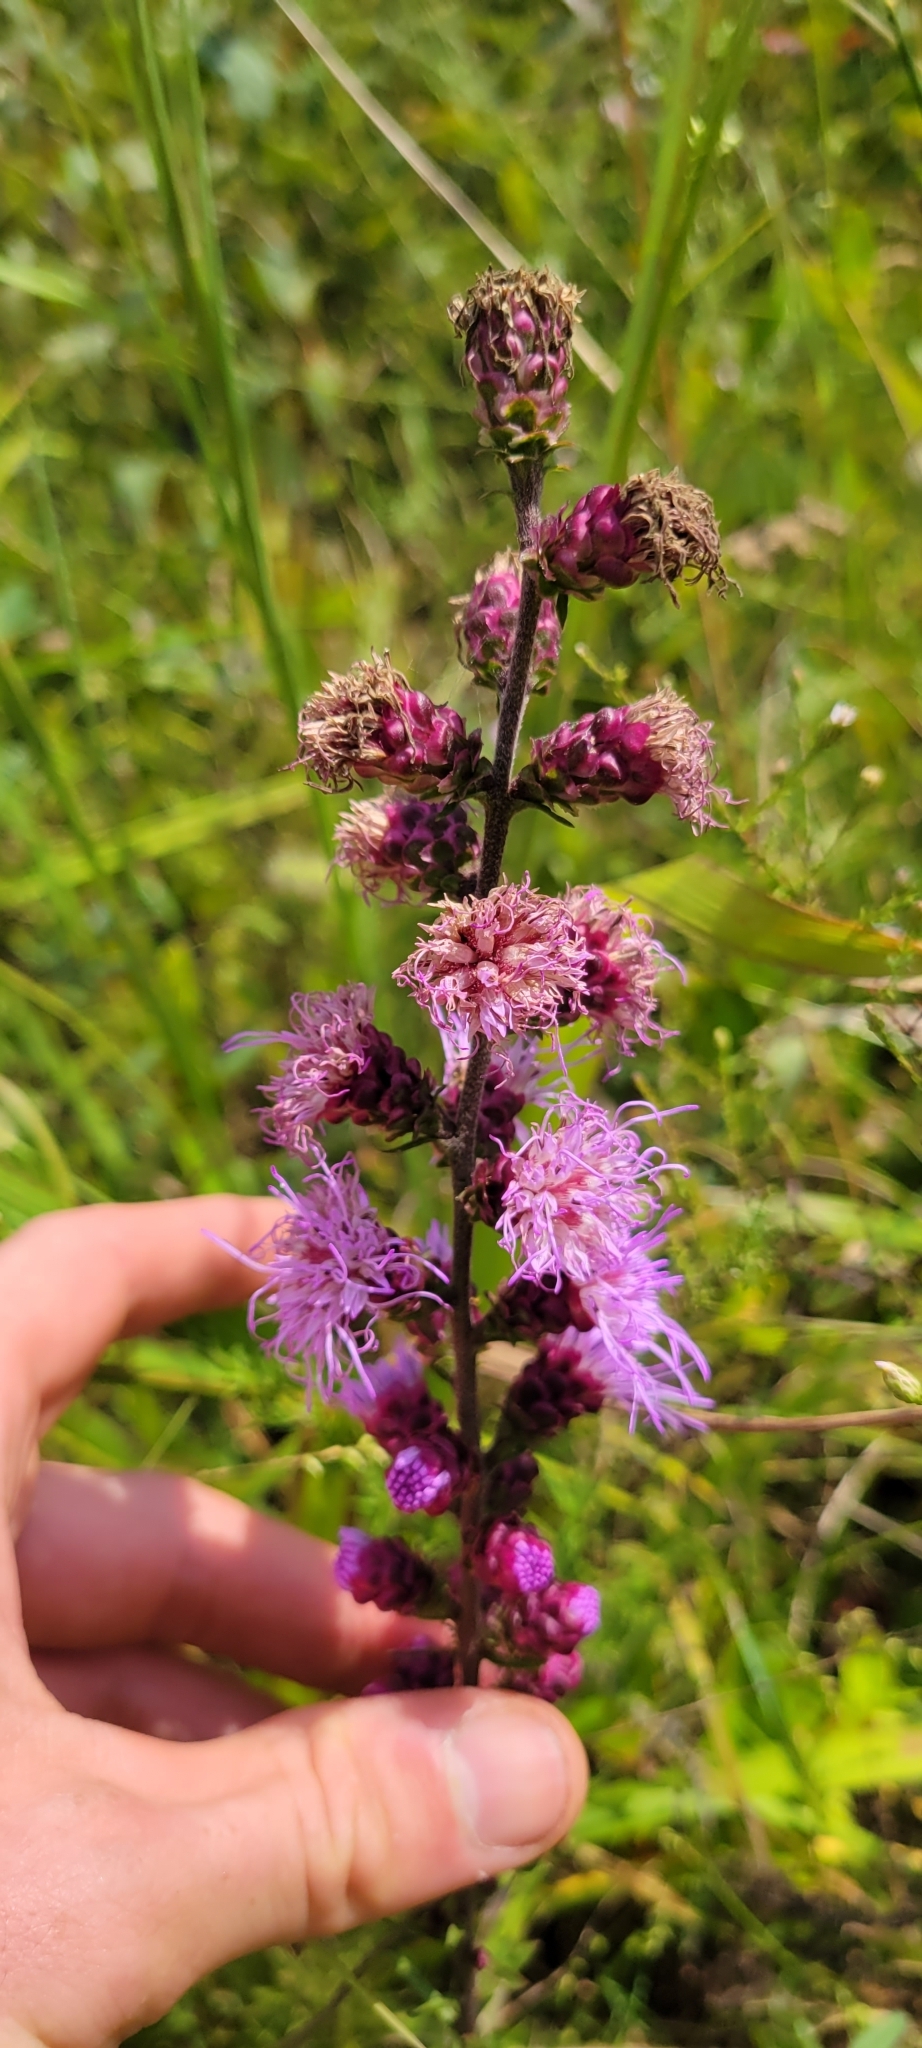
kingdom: Plantae
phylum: Tracheophyta
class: Magnoliopsida
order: Asterales
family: Asteraceae
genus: Liatris
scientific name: Liatris aspera
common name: Lacerate blazing-star
